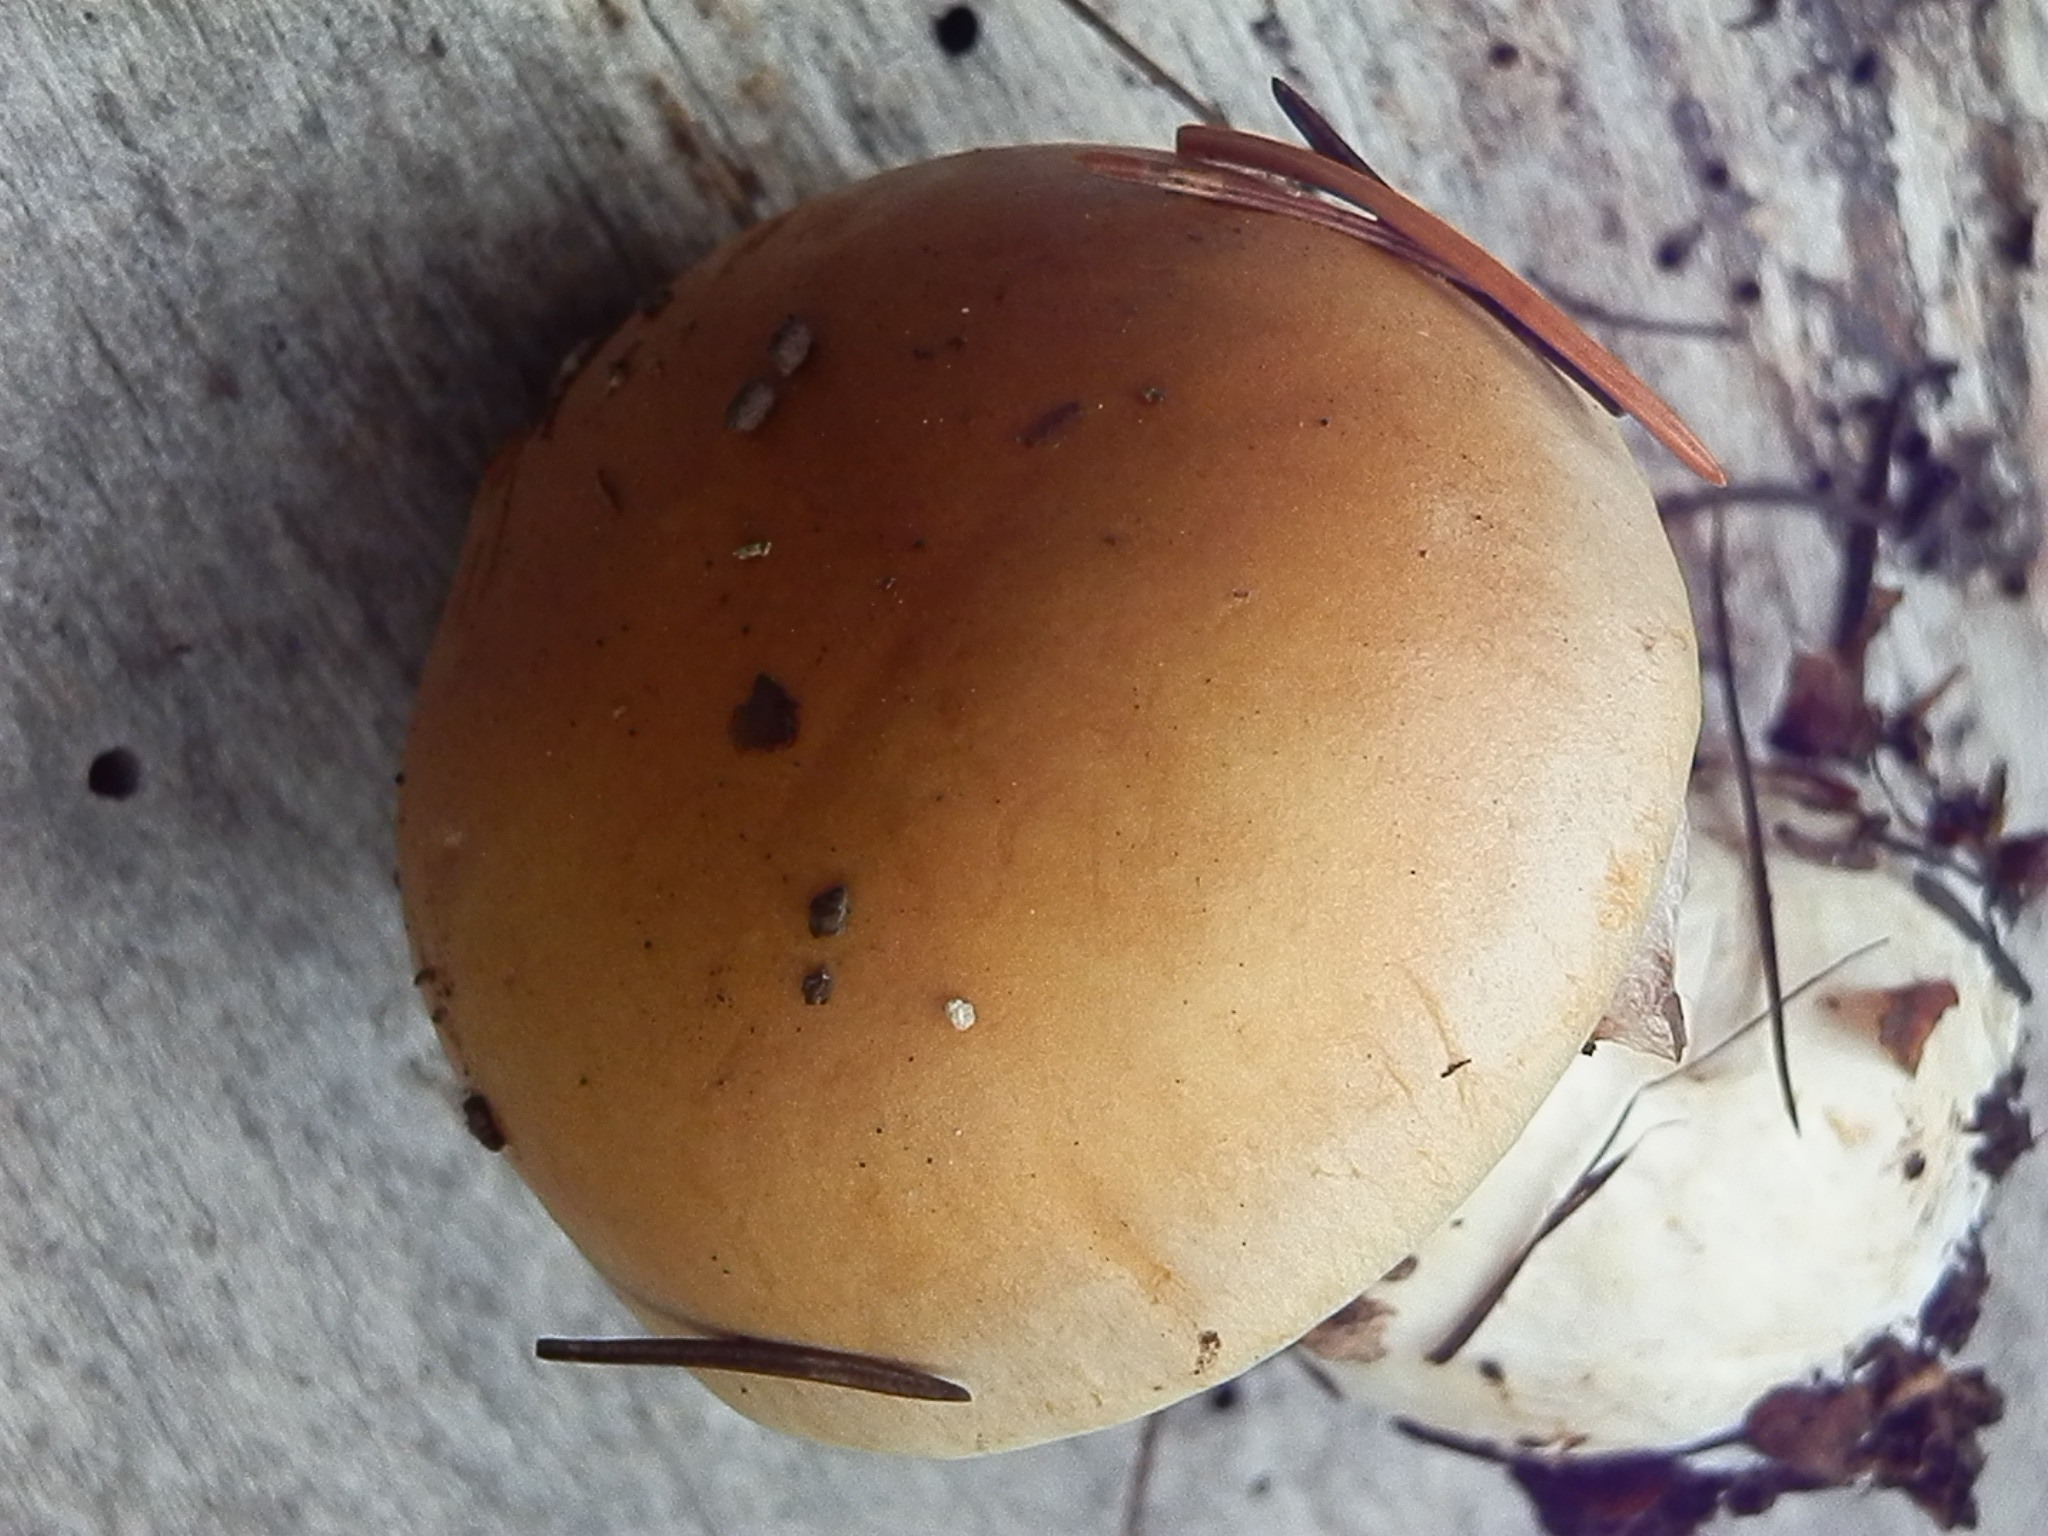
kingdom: Fungi
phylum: Basidiomycota
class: Agaricomycetes
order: Agaricales
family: Cortinariaceae
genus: Phlegmacium
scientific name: Phlegmacium variosimile
